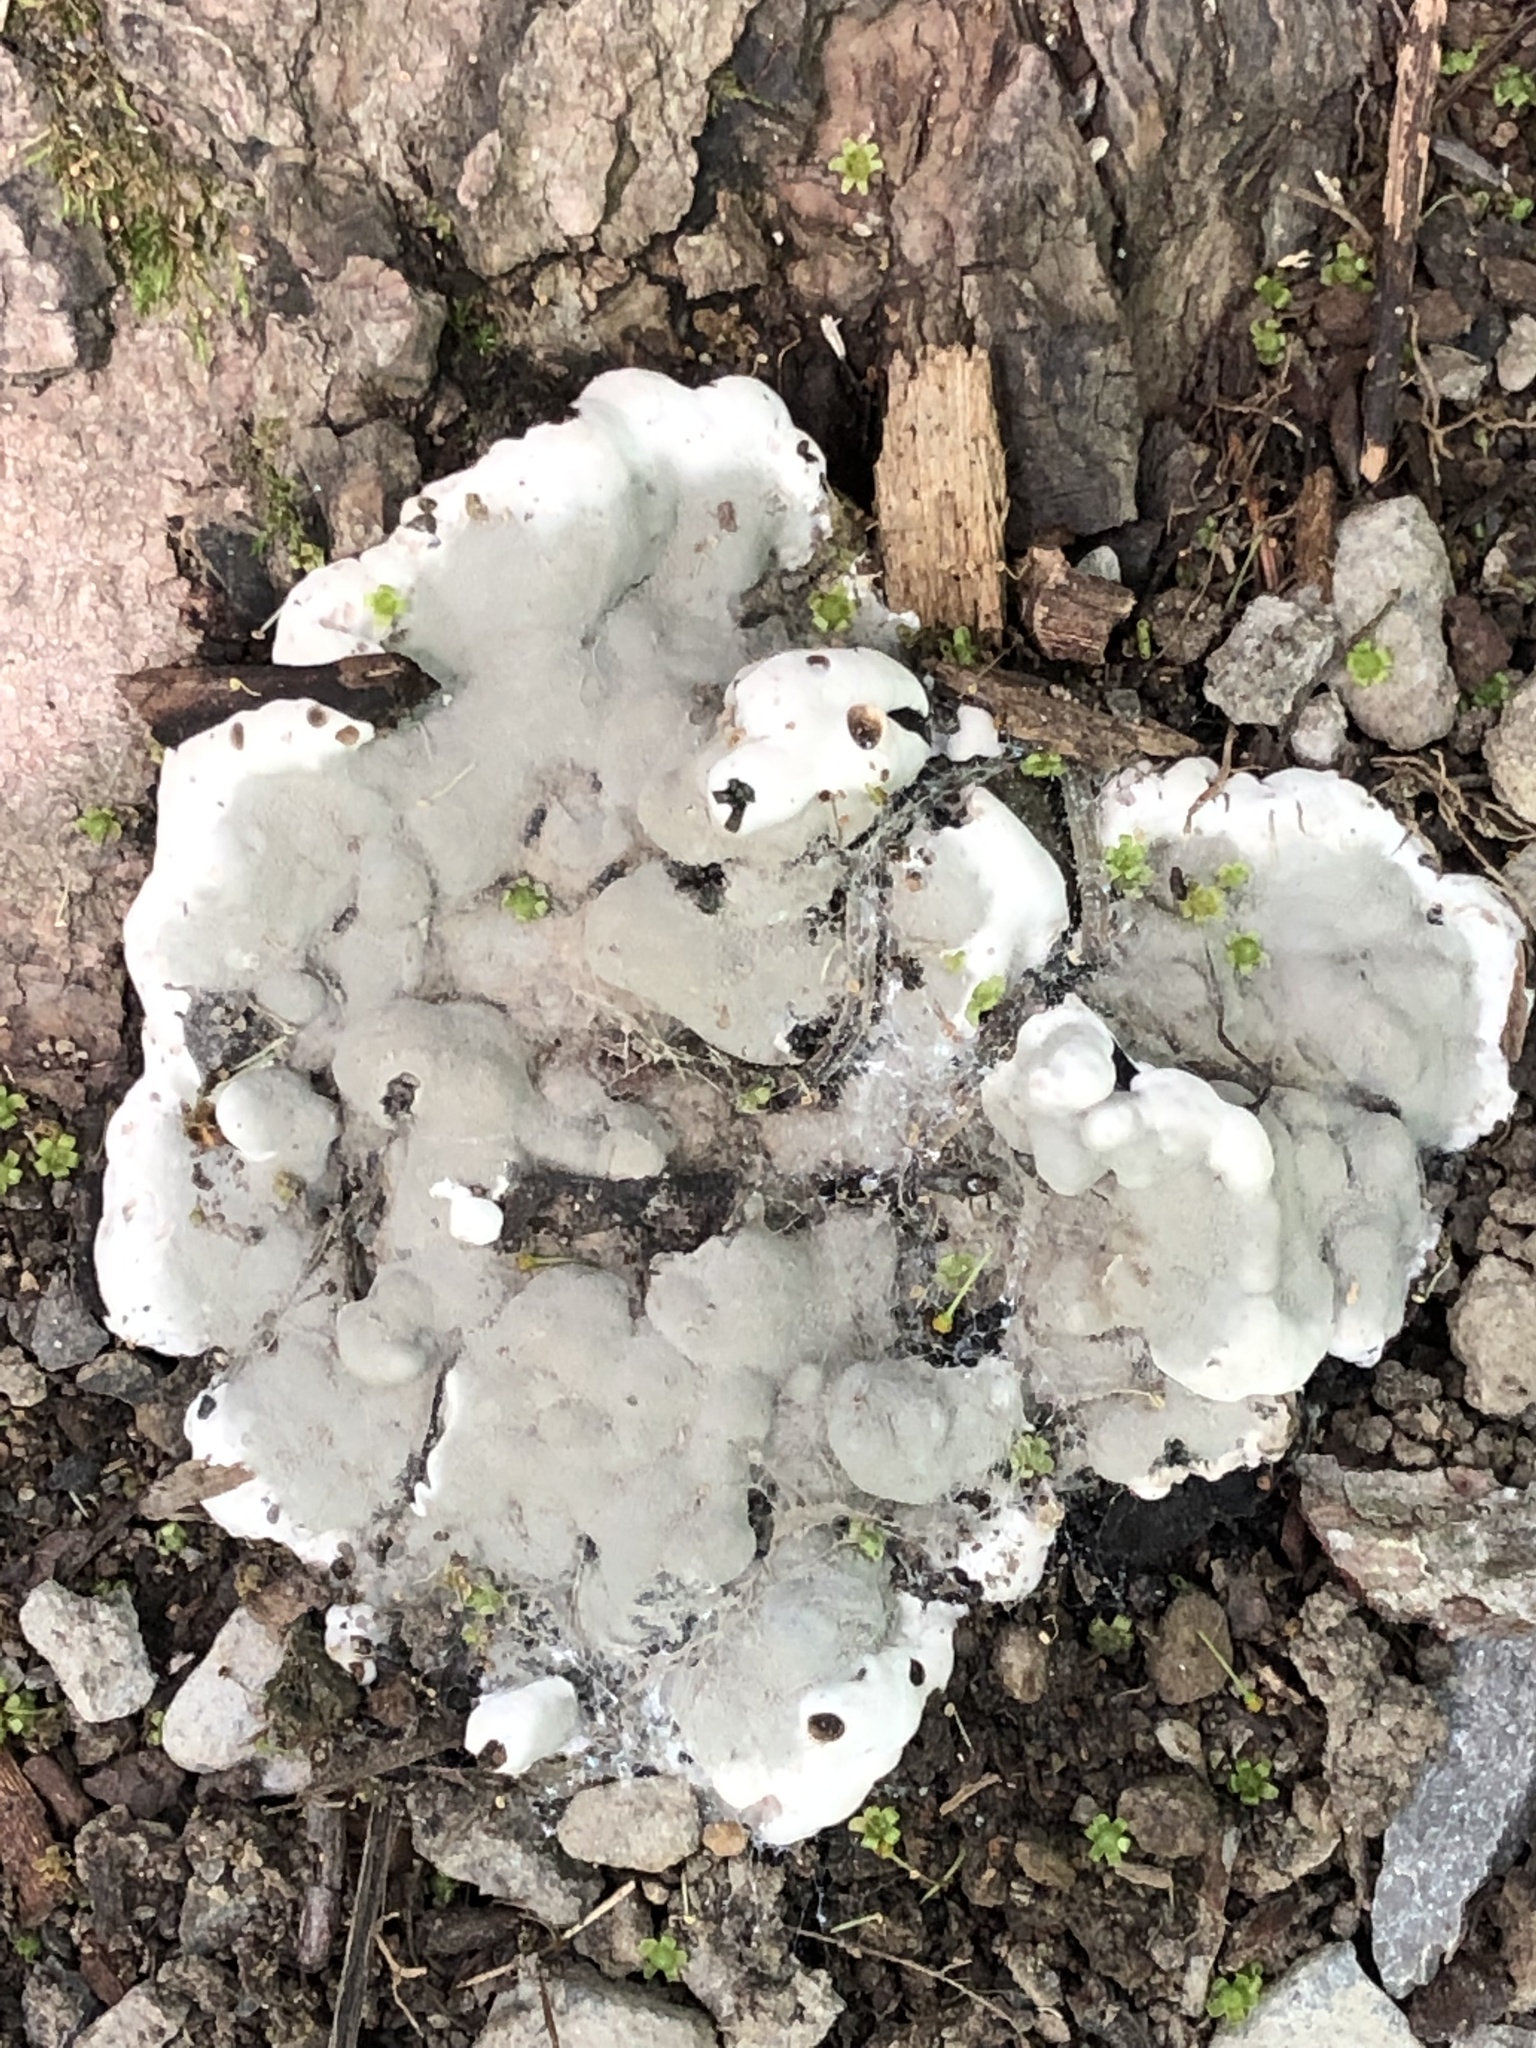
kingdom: Fungi
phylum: Ascomycota
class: Sordariomycetes
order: Xylariales
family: Xylariaceae
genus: Kretzschmaria
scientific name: Kretzschmaria deusta
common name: Brittle cinder
